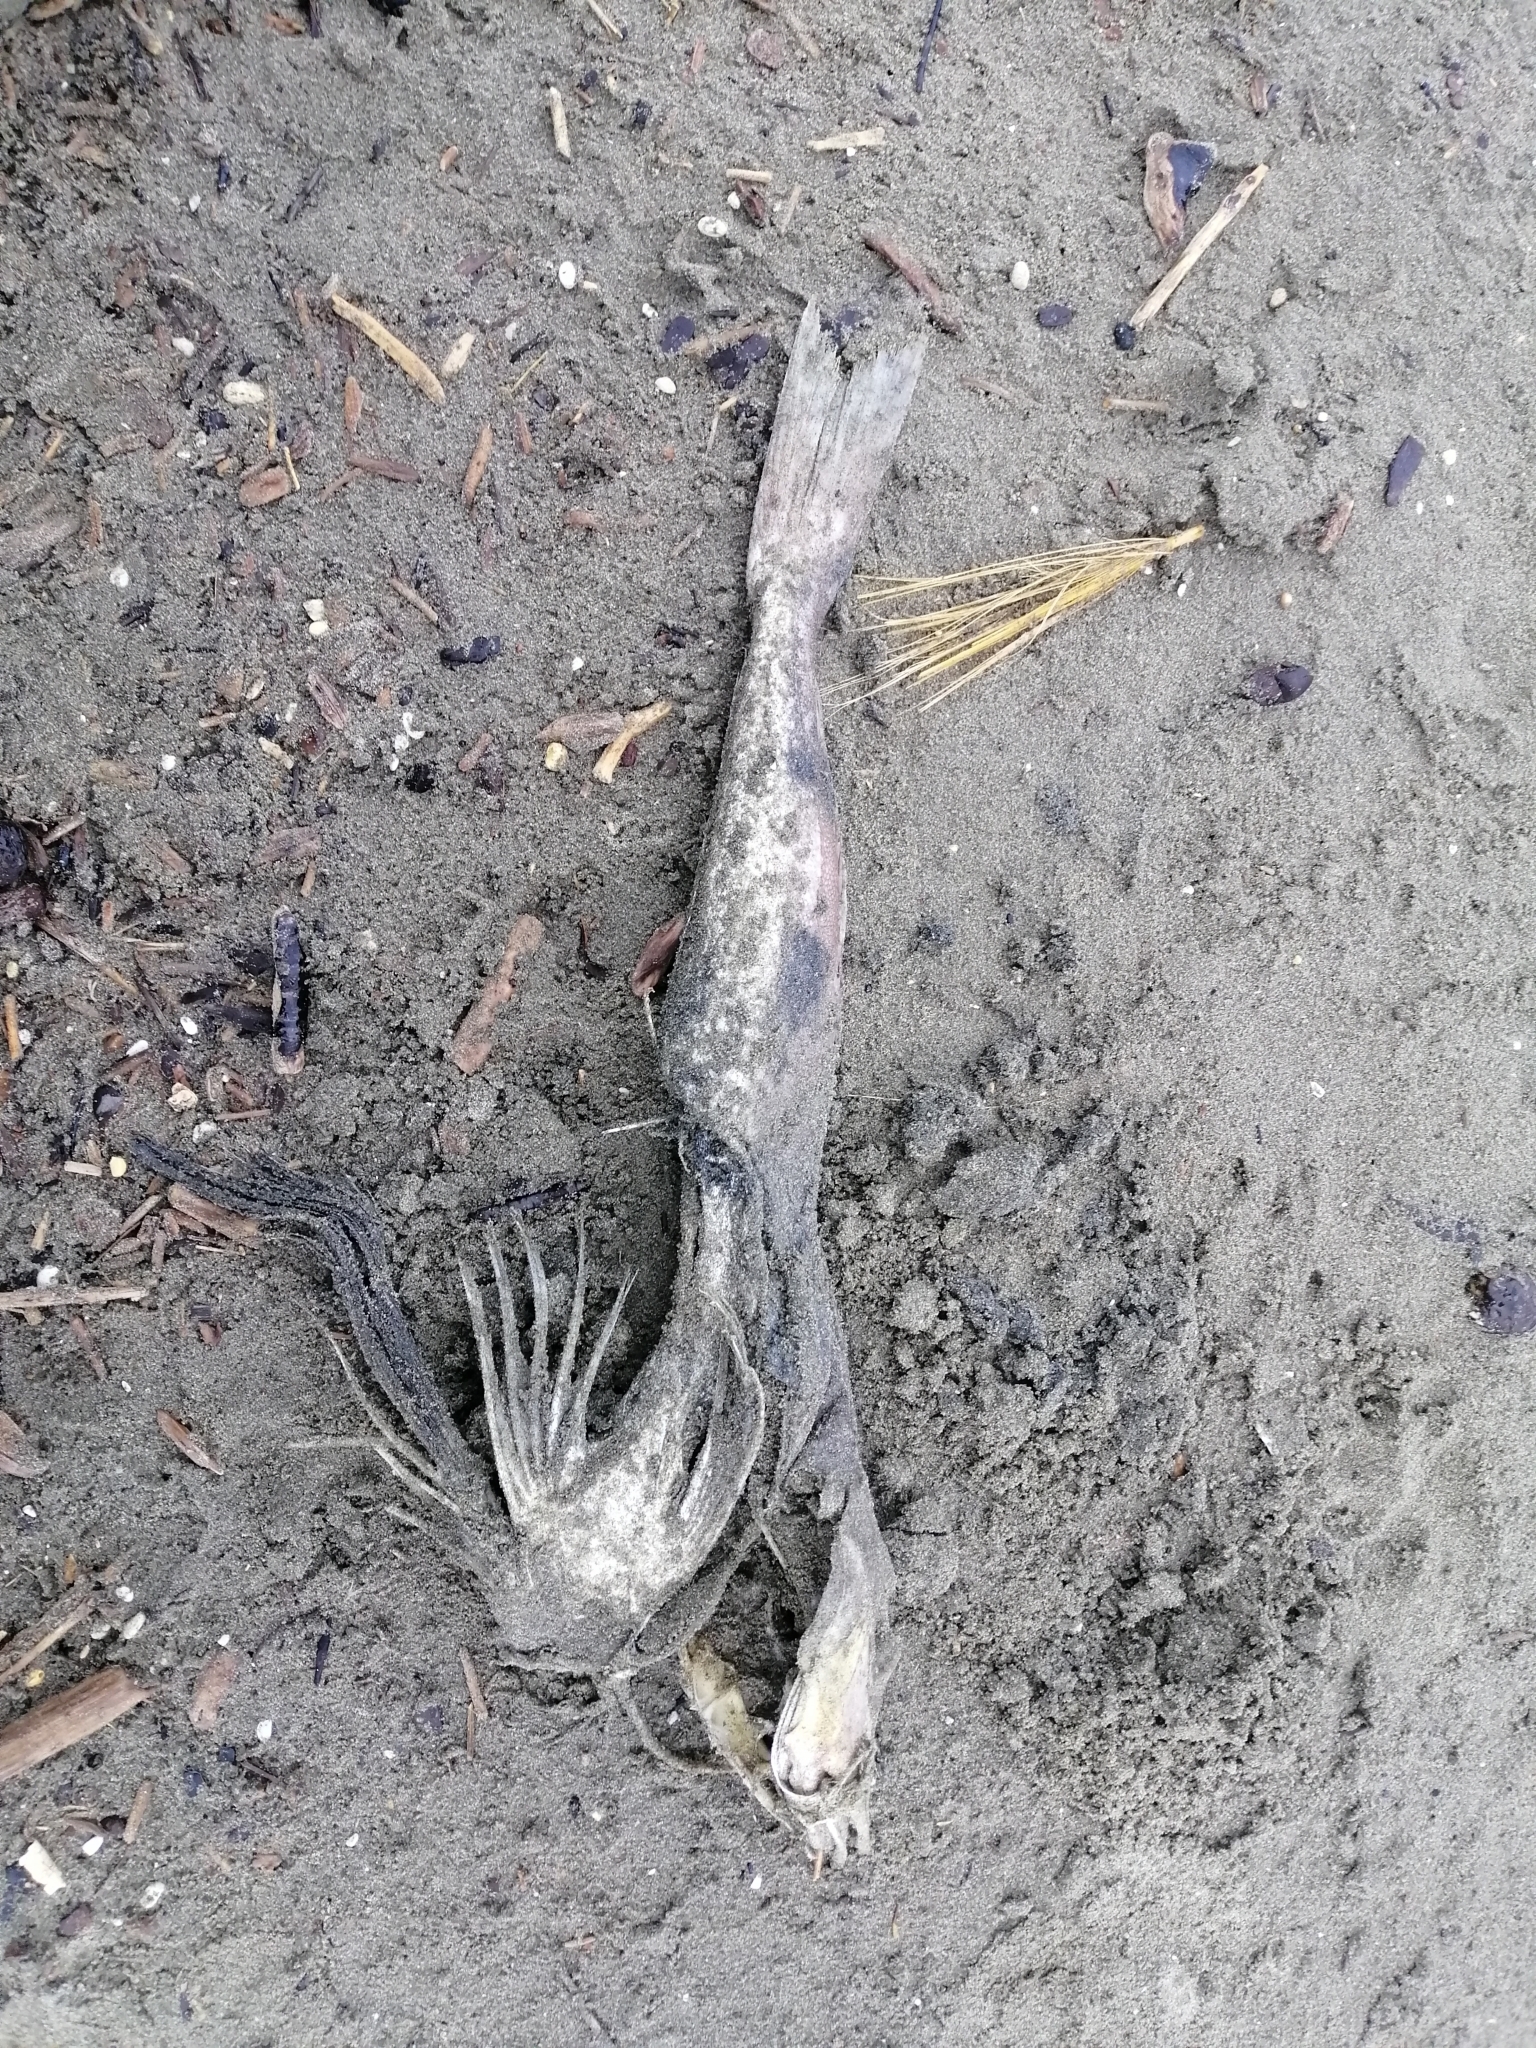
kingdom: Animalia
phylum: Chordata
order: Scorpaeniformes
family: Triglidae
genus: Chelidonichthys
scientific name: Chelidonichthys kumu
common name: Bluefin gurnard
